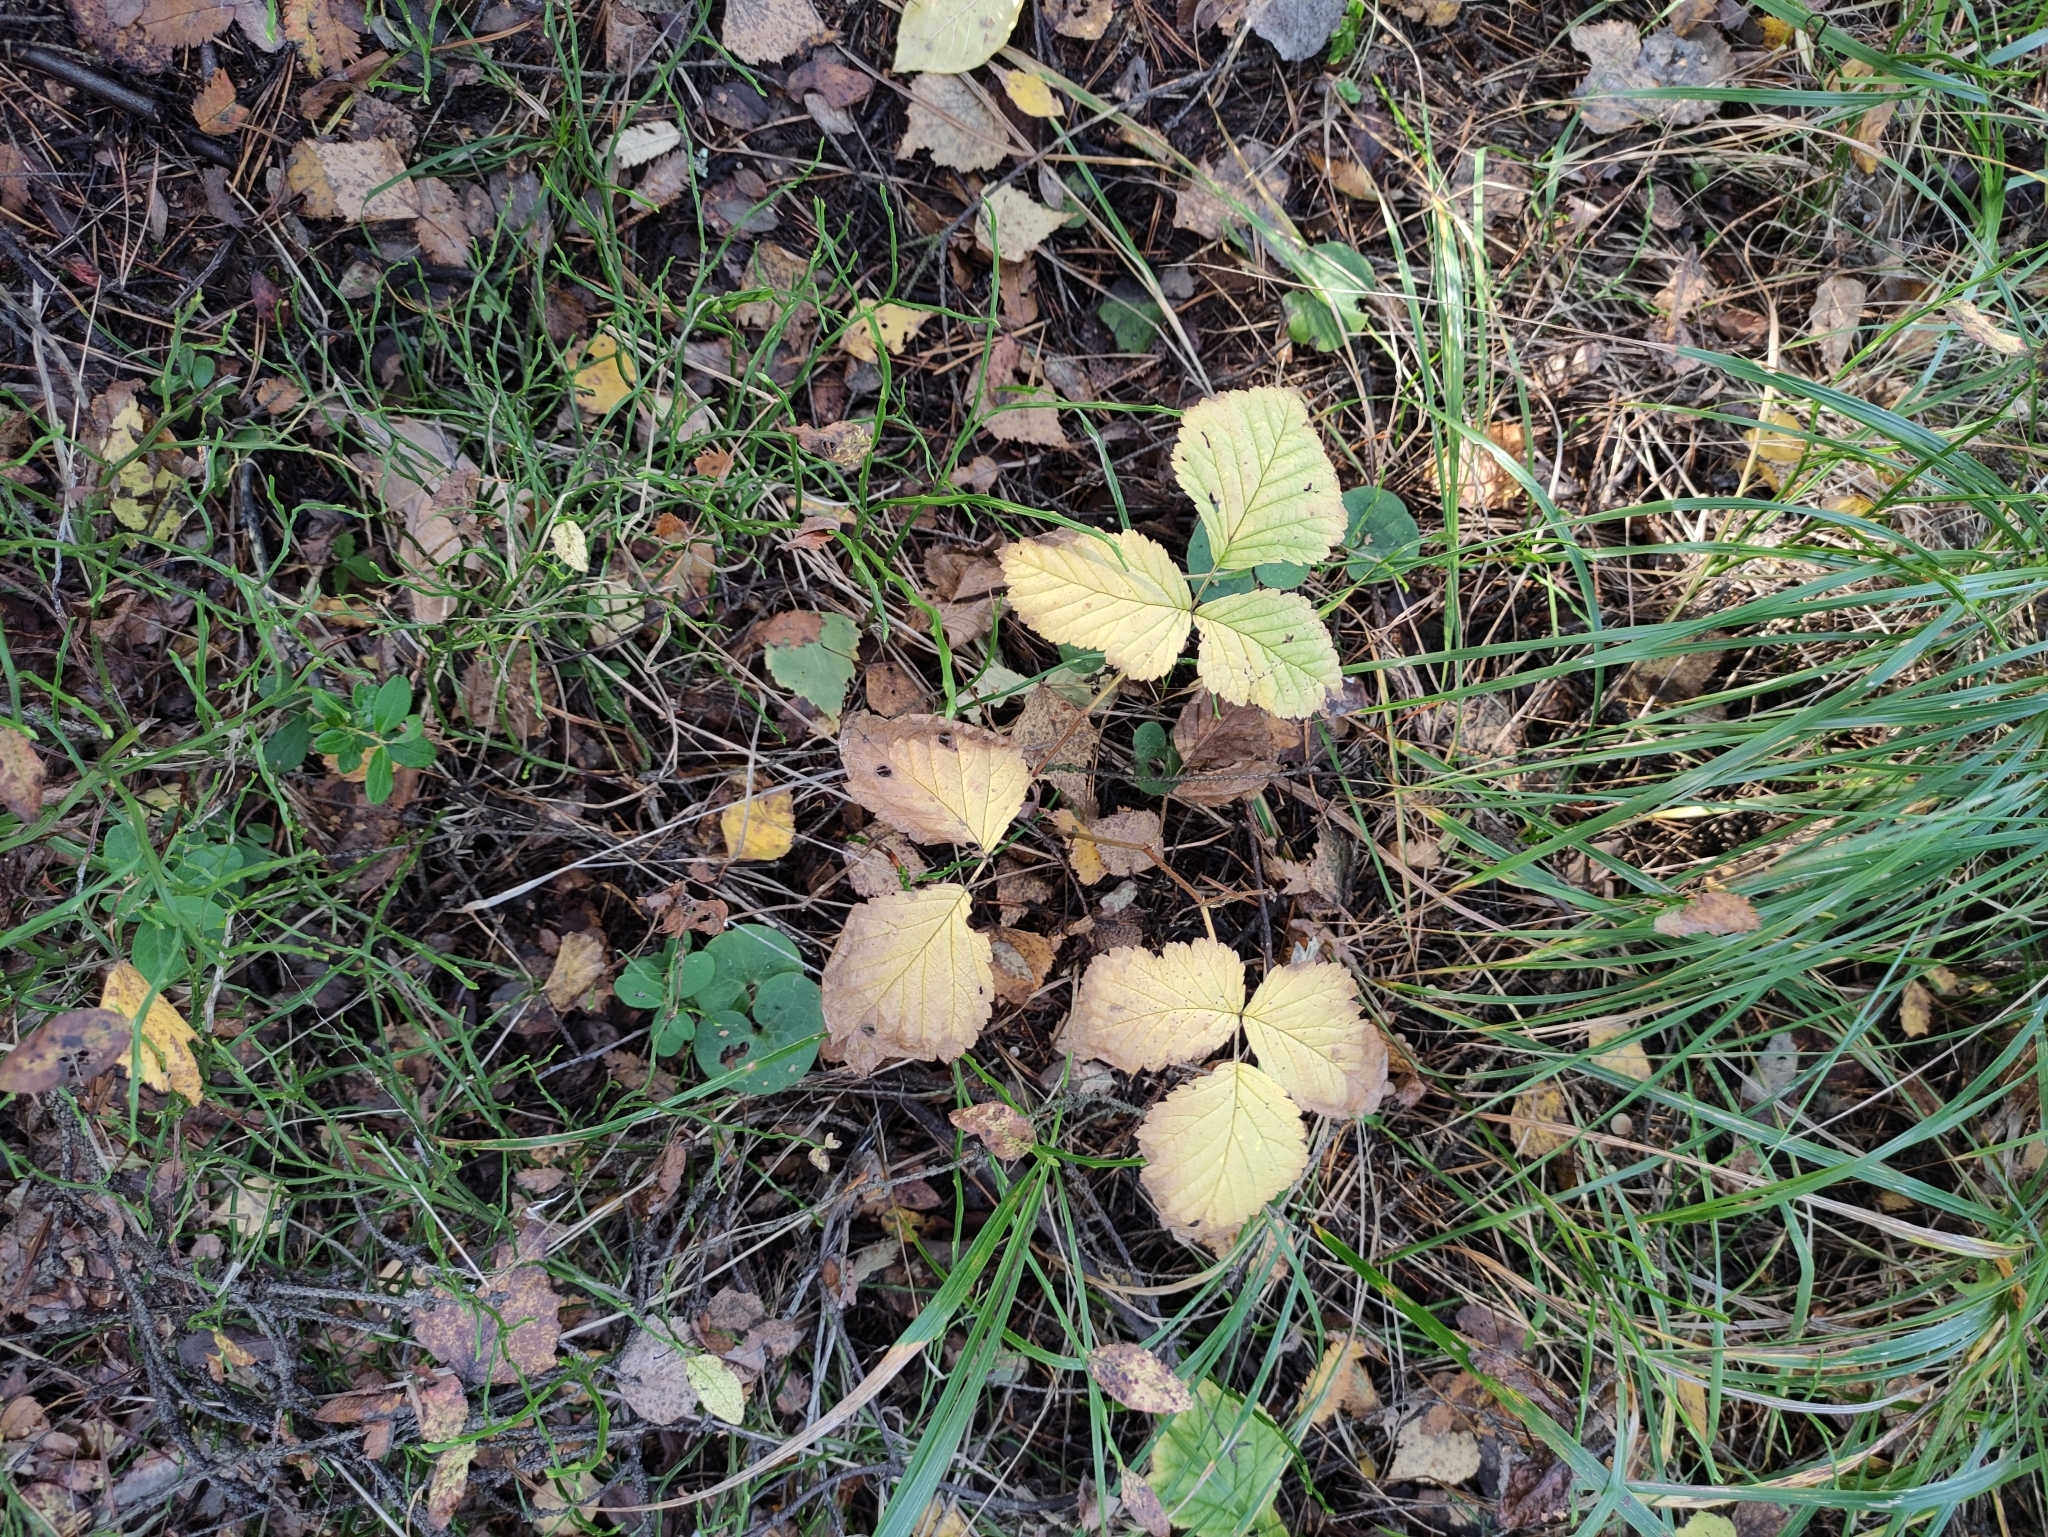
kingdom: Plantae
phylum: Tracheophyta
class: Magnoliopsida
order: Rosales
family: Rosaceae
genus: Rubus
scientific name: Rubus saxatilis
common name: Stone bramble
